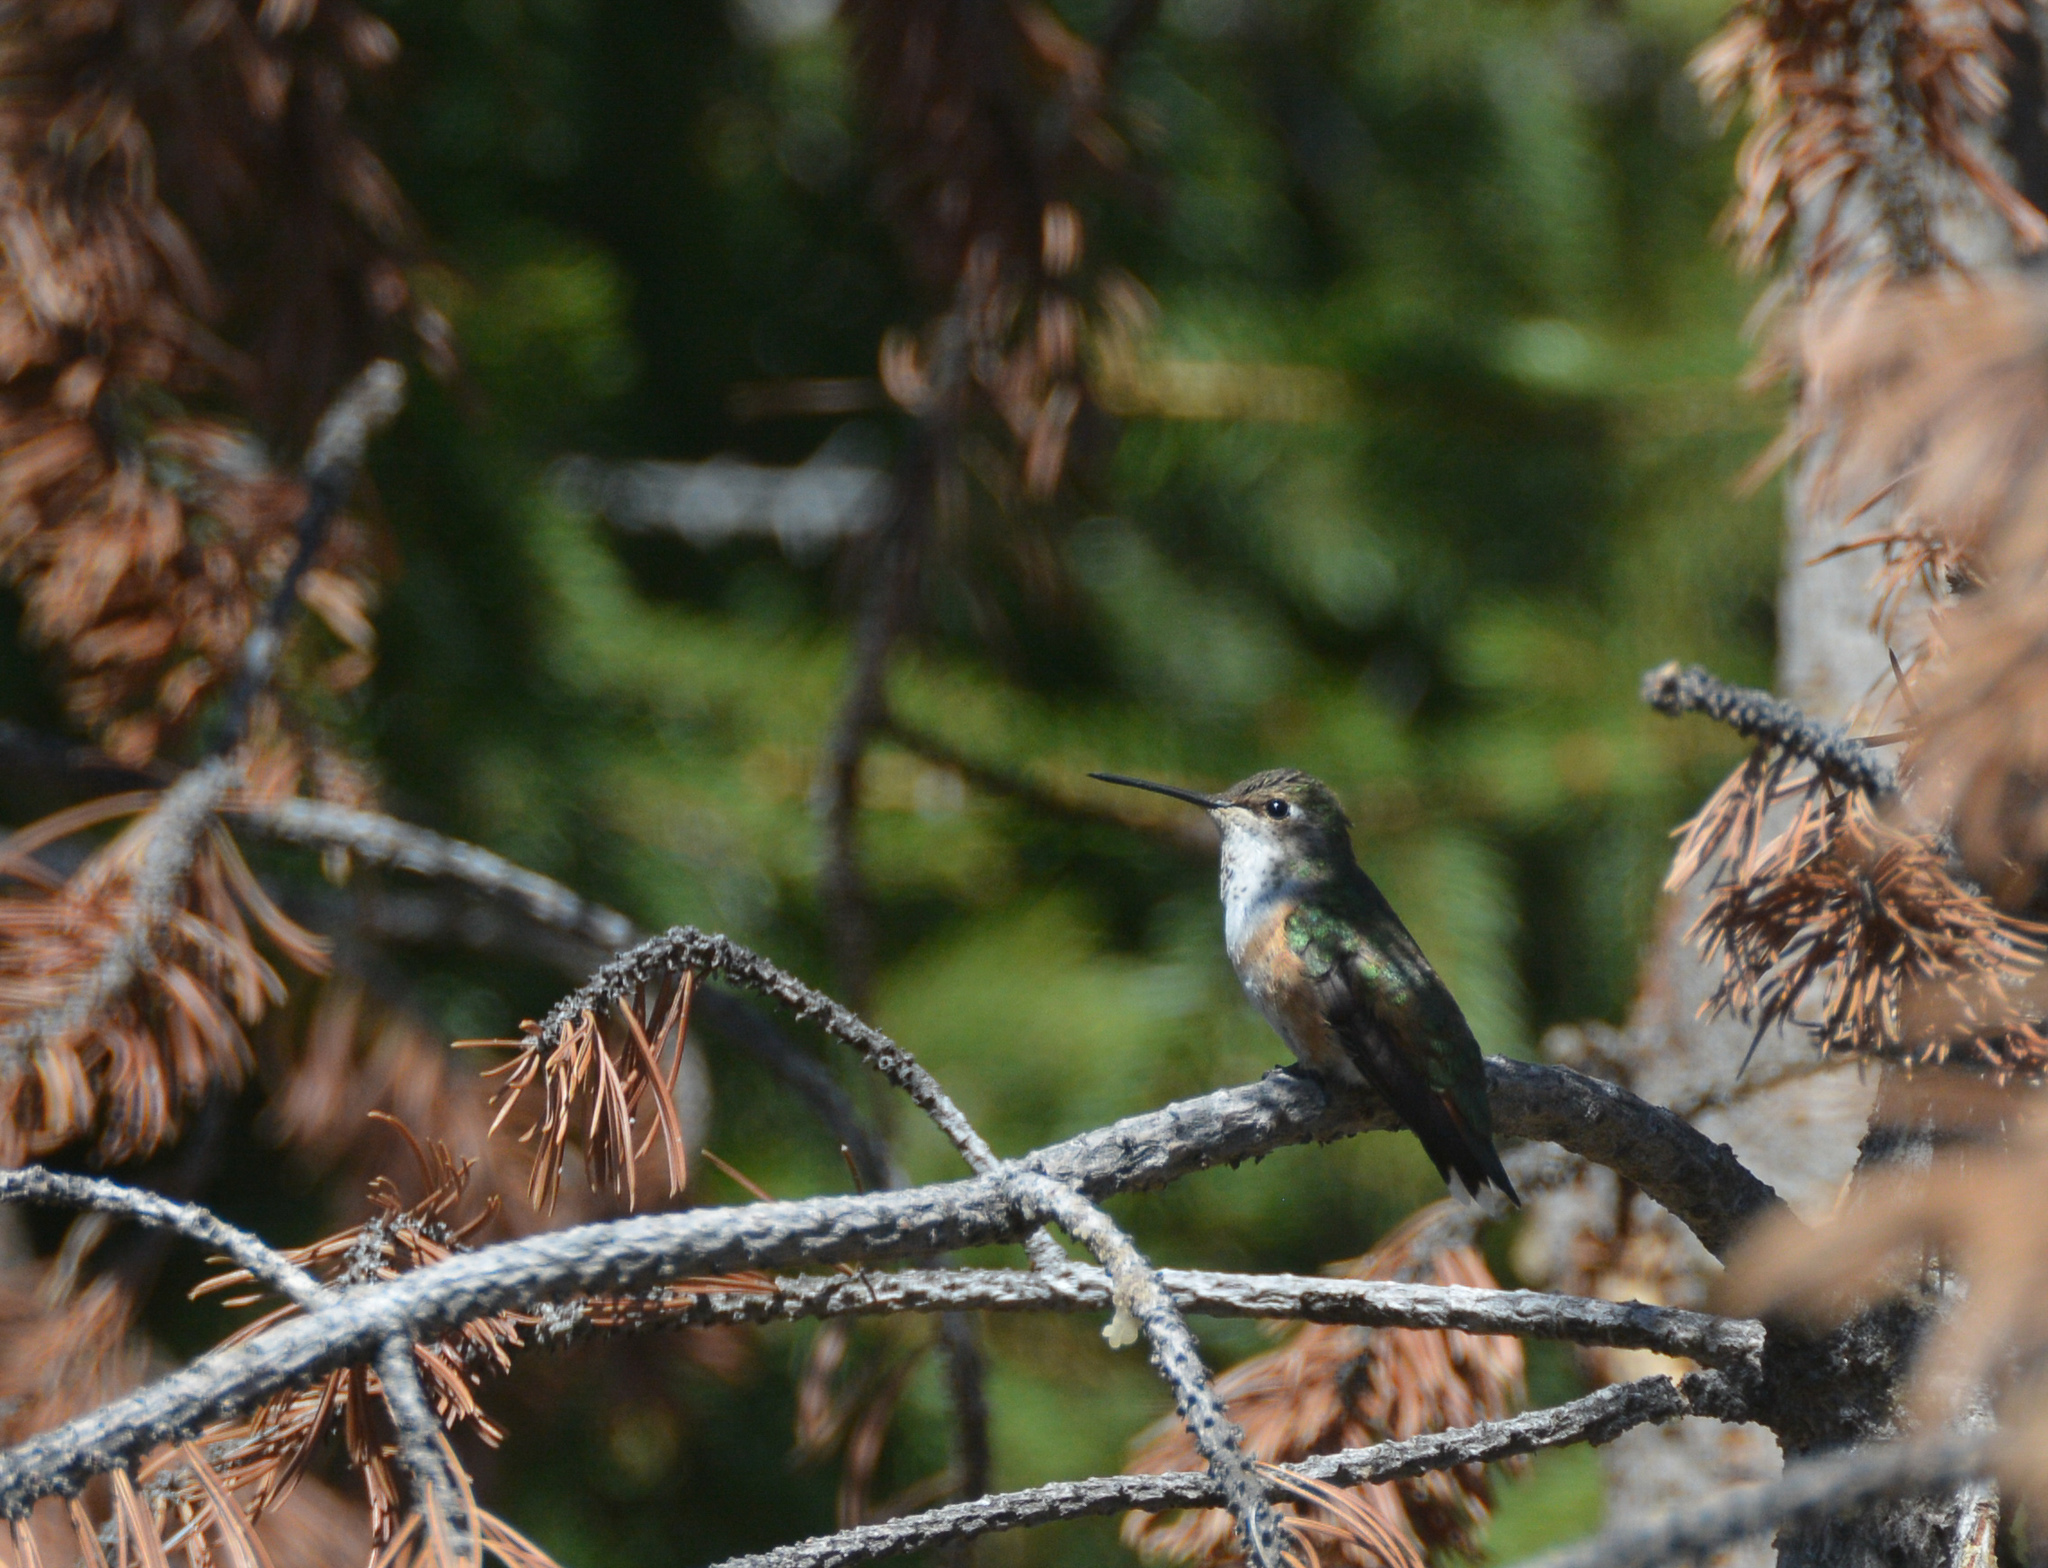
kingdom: Animalia
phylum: Chordata
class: Aves
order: Apodiformes
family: Trochilidae
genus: Selasphorus
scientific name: Selasphorus rufus
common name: Rufous hummingbird
